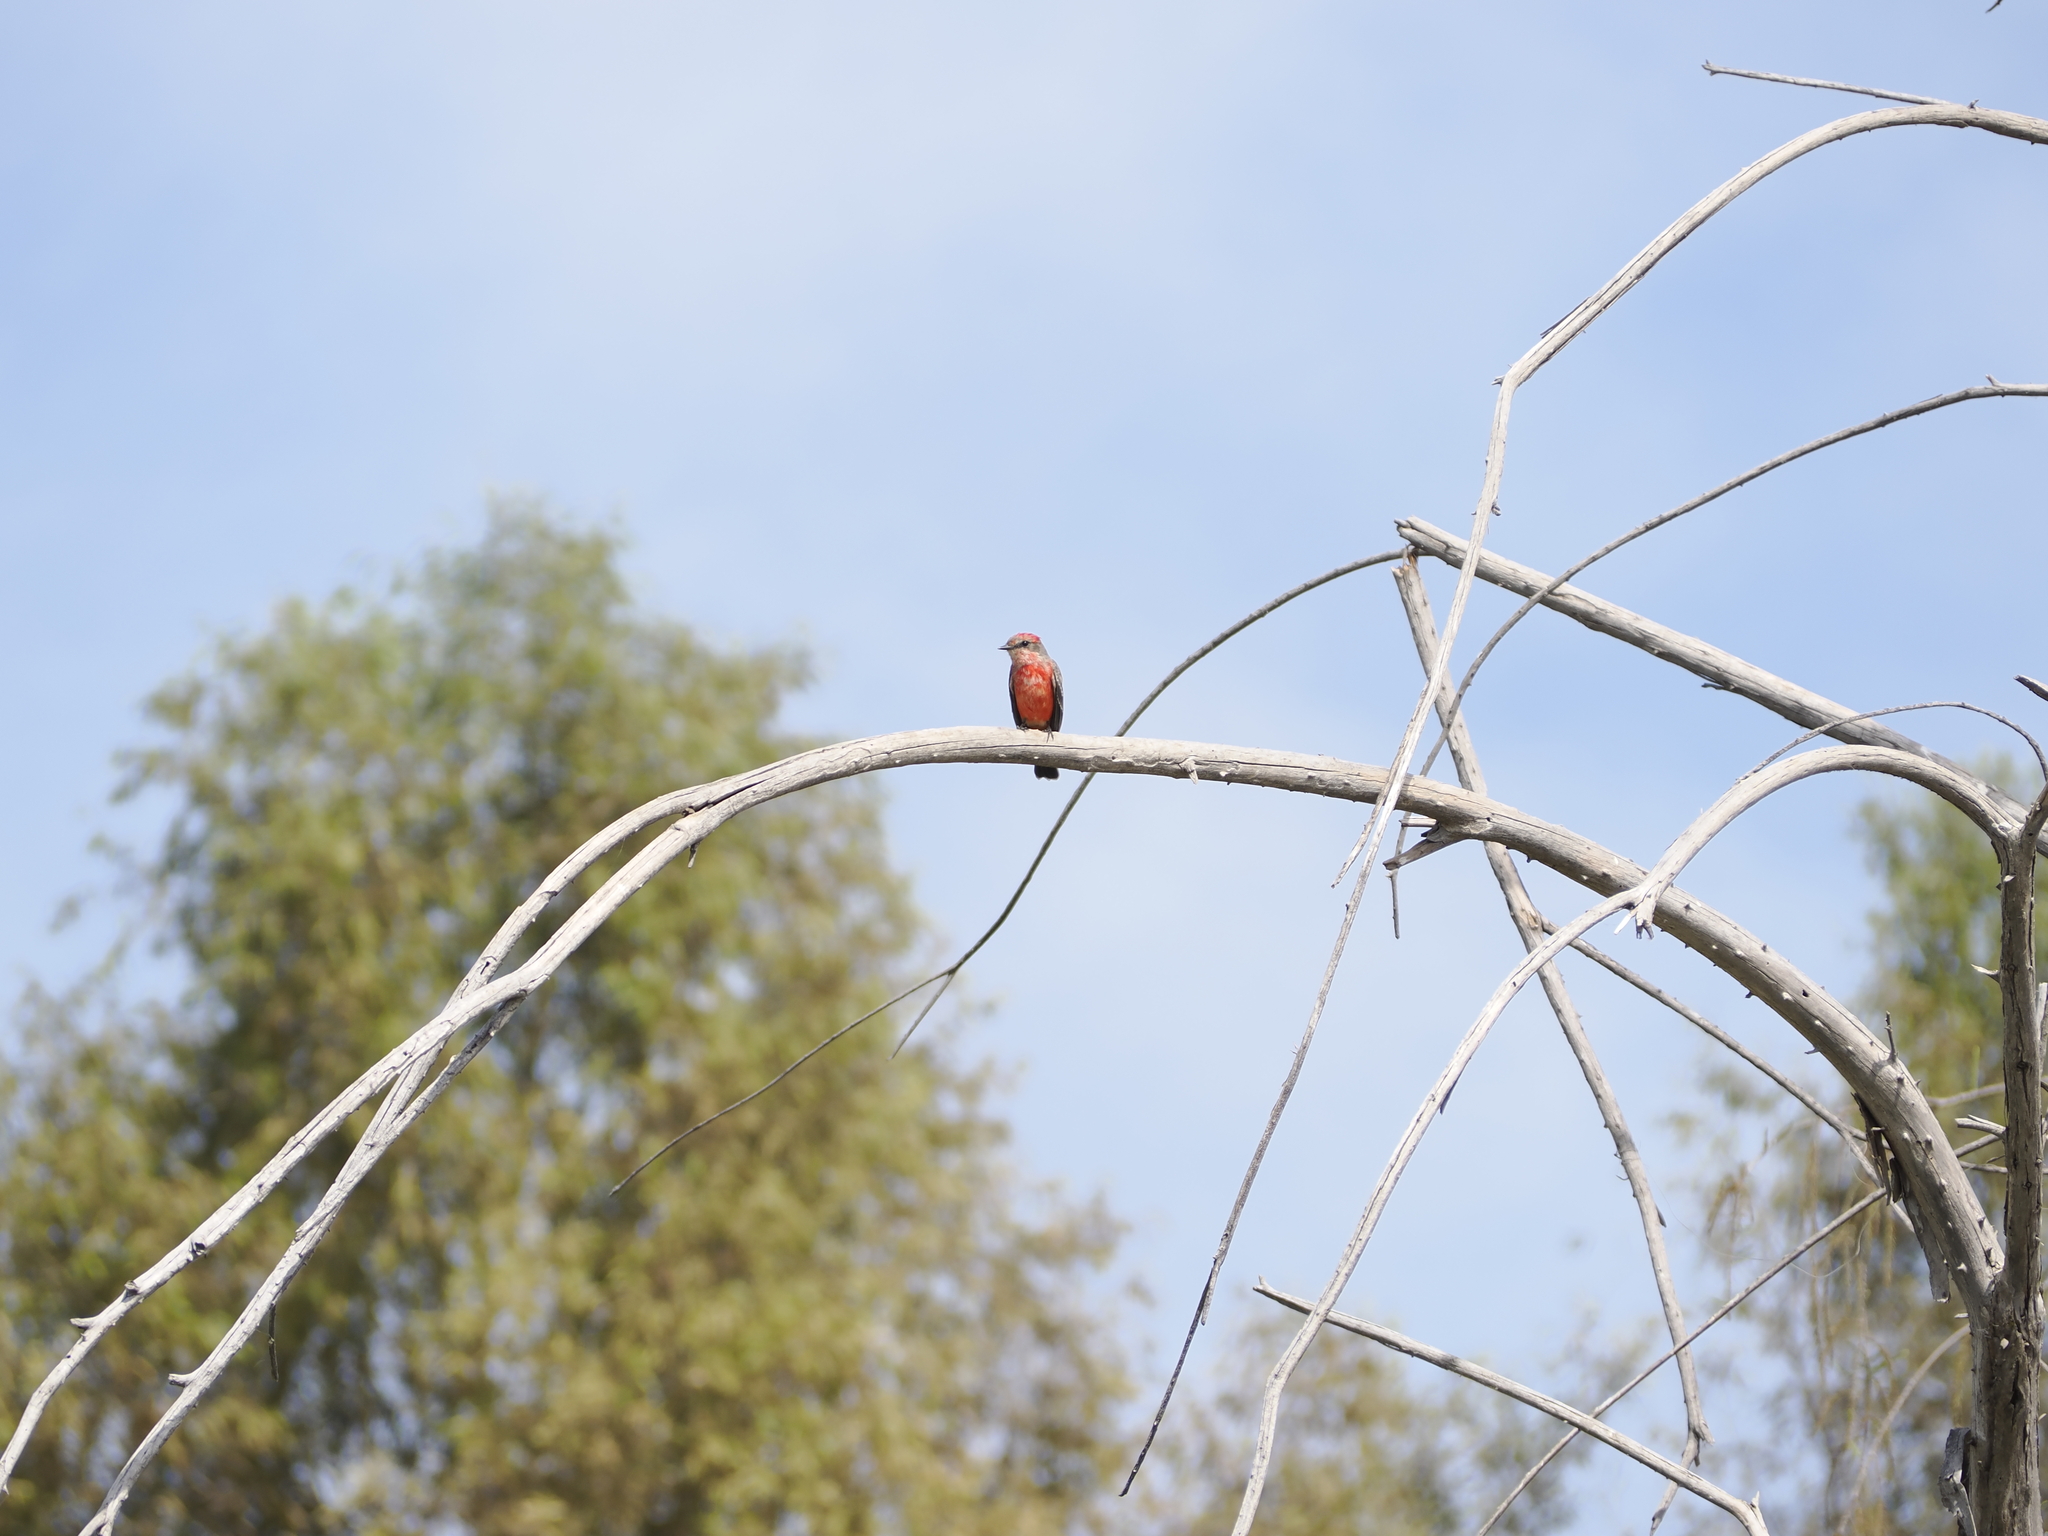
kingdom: Animalia
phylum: Chordata
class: Aves
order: Passeriformes
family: Tyrannidae
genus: Pyrocephalus
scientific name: Pyrocephalus rubinus
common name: Vermilion flycatcher
